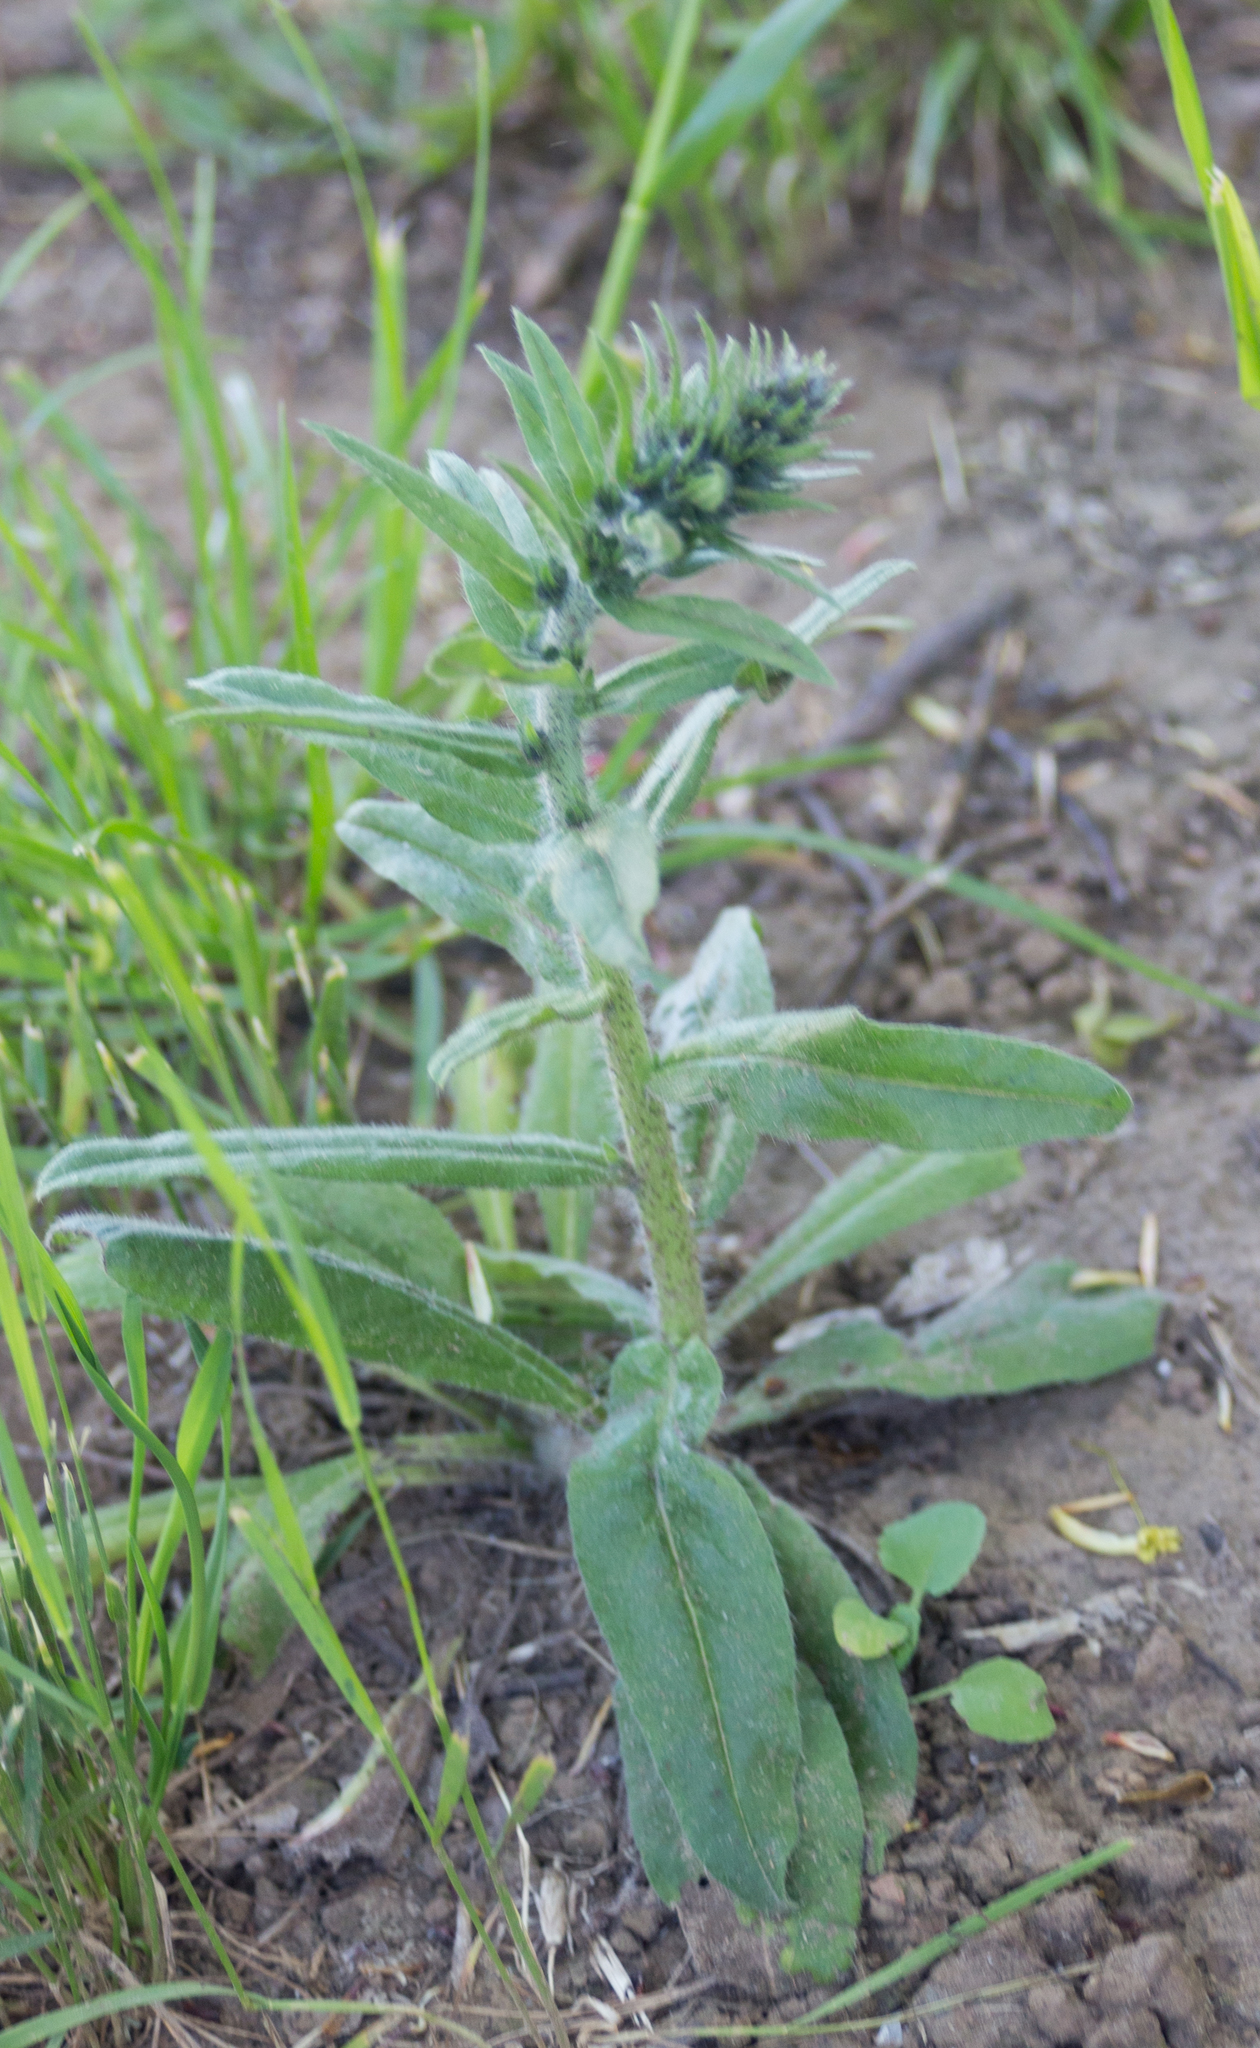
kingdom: Plantae
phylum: Tracheophyta
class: Magnoliopsida
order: Boraginales
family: Boraginaceae
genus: Echium
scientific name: Echium vulgare
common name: Common viper's bugloss
